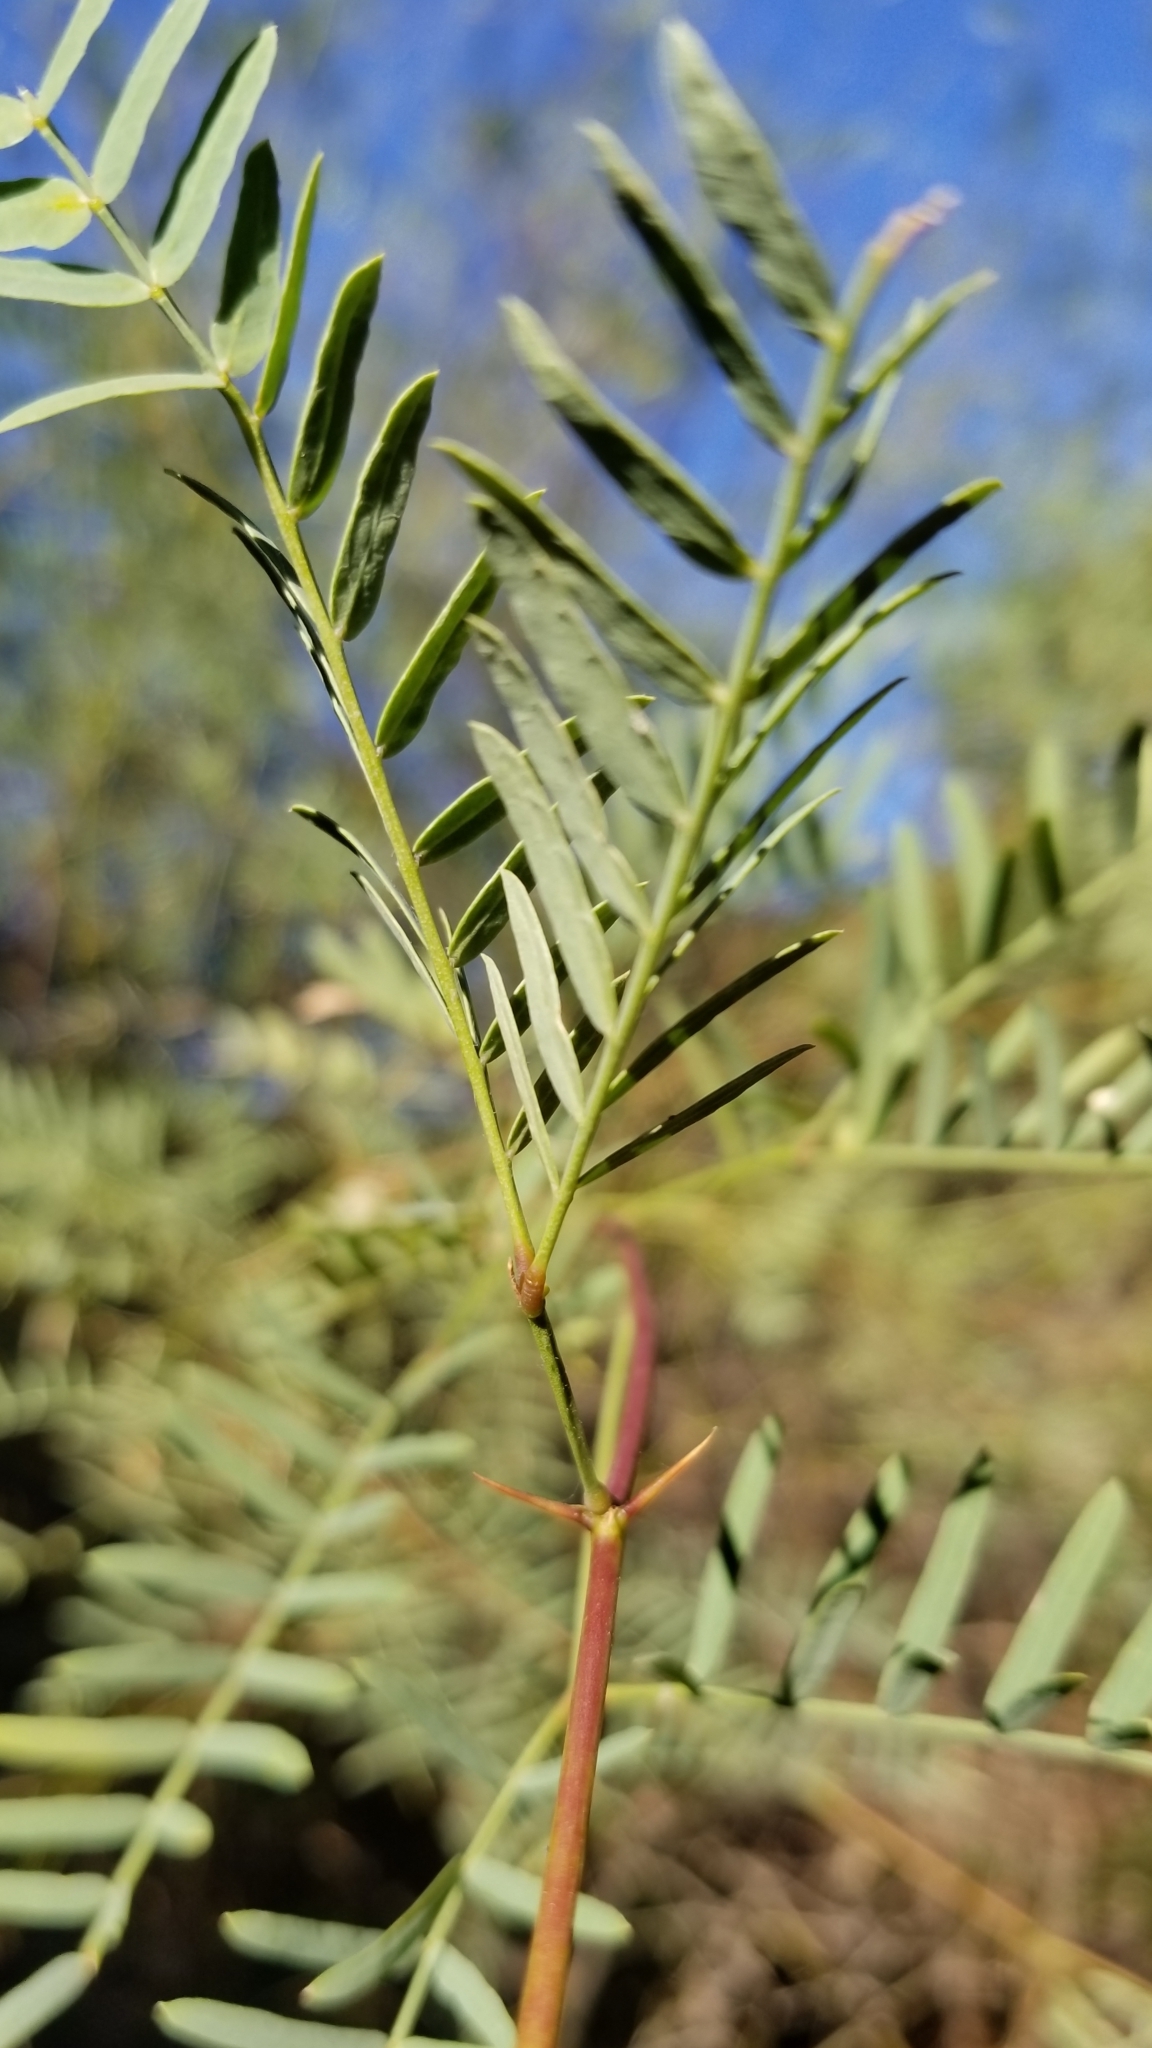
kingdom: Plantae
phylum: Tracheophyta
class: Magnoliopsida
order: Fabales
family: Fabaceae
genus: Prosopis
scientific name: Prosopis pubescens
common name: Screw-bean
